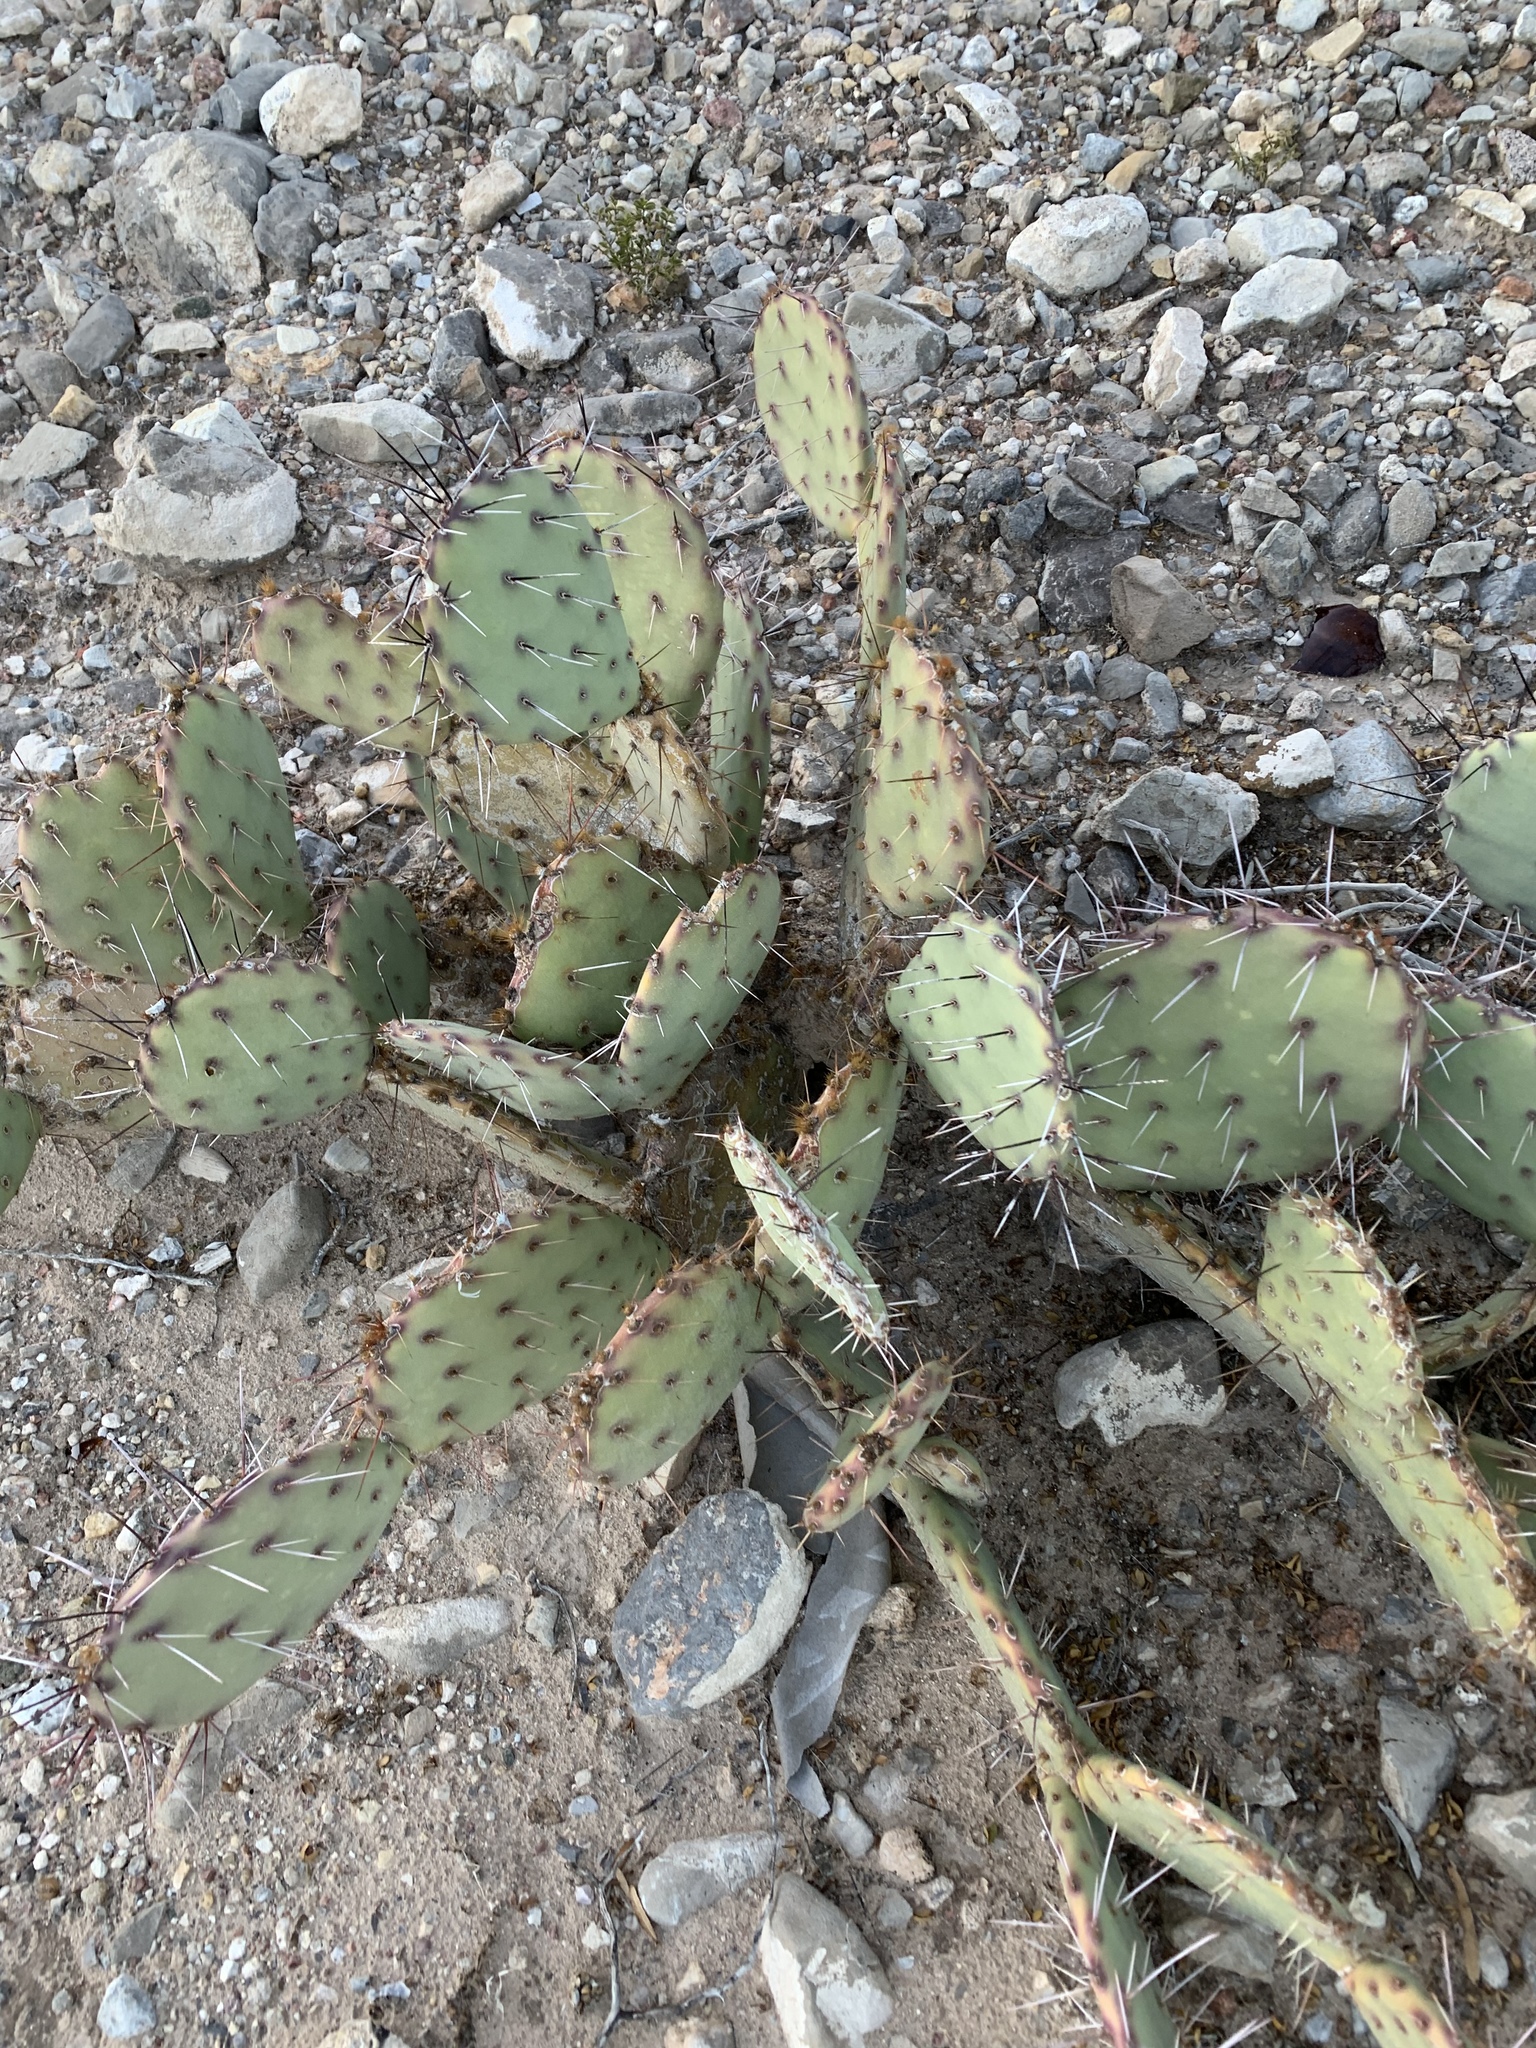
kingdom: Plantae
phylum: Tracheophyta
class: Magnoliopsida
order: Caryophyllales
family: Cactaceae
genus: Opuntia
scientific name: Opuntia phaeacantha
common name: New mexico prickly-pear
